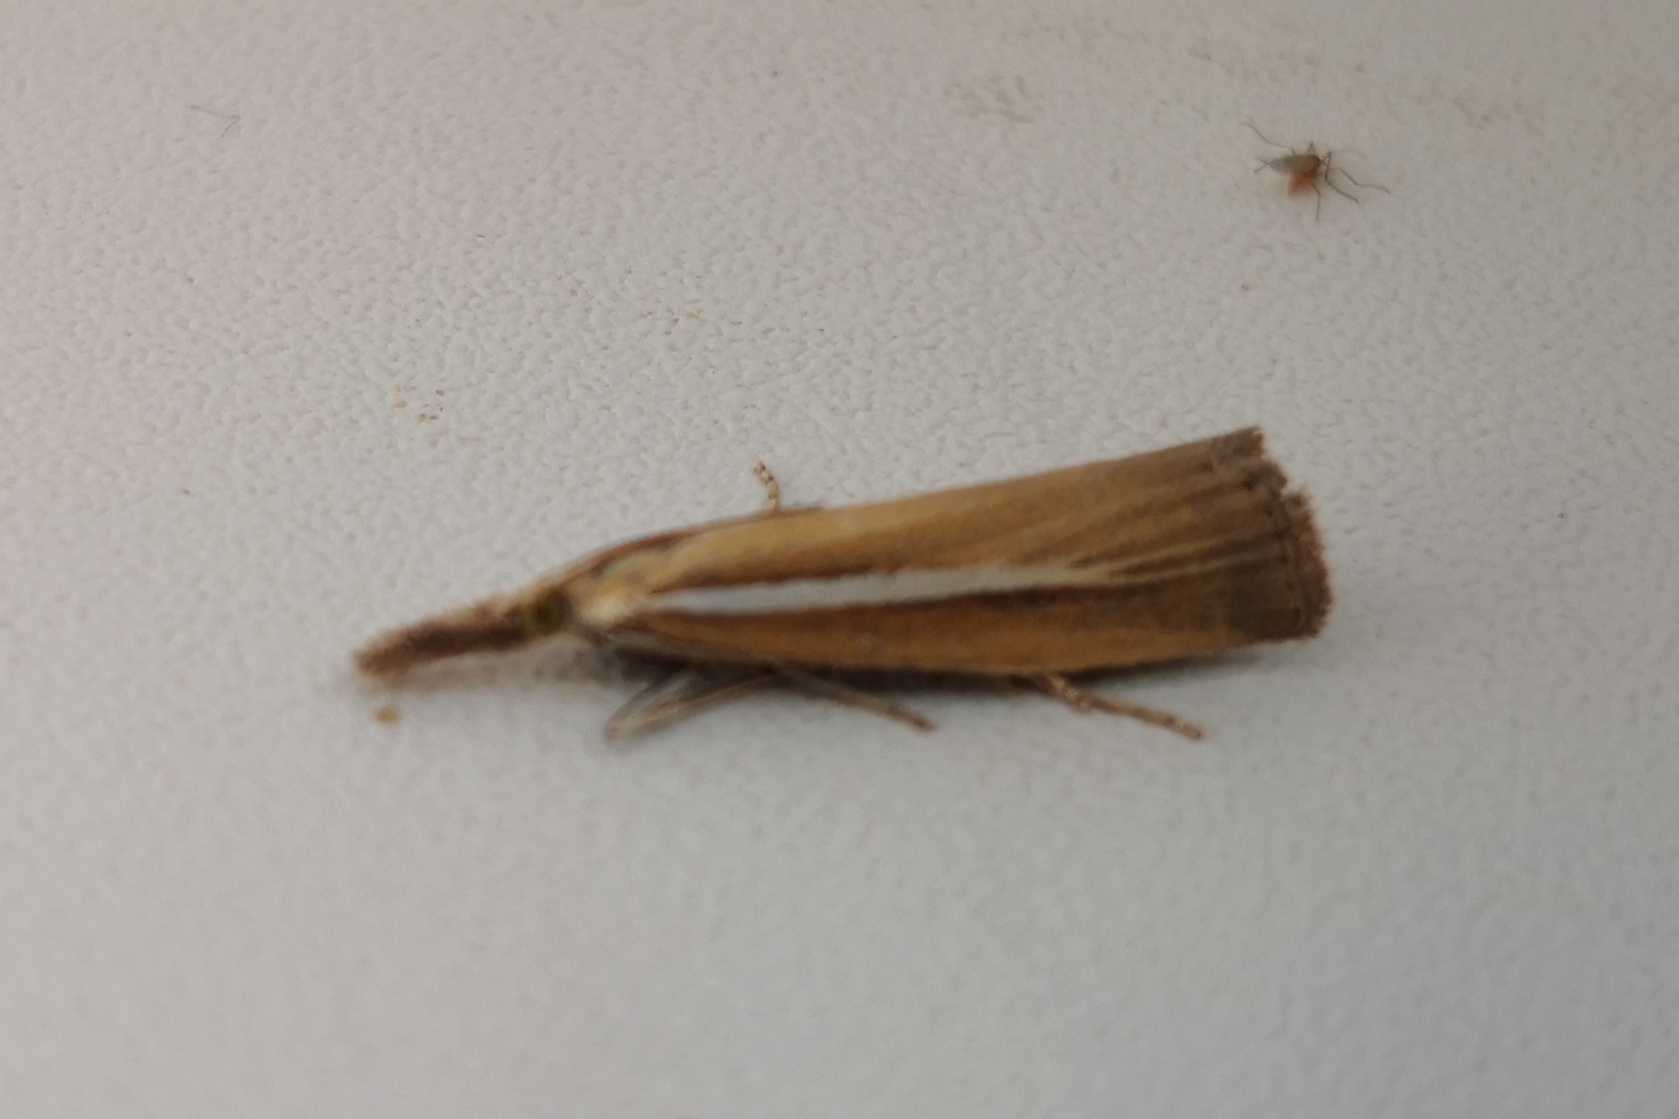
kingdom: Animalia
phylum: Arthropoda
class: Insecta
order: Lepidoptera
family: Crambidae
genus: Agriphila
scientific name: Agriphila selasella
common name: Pale-streak grass-veneer
